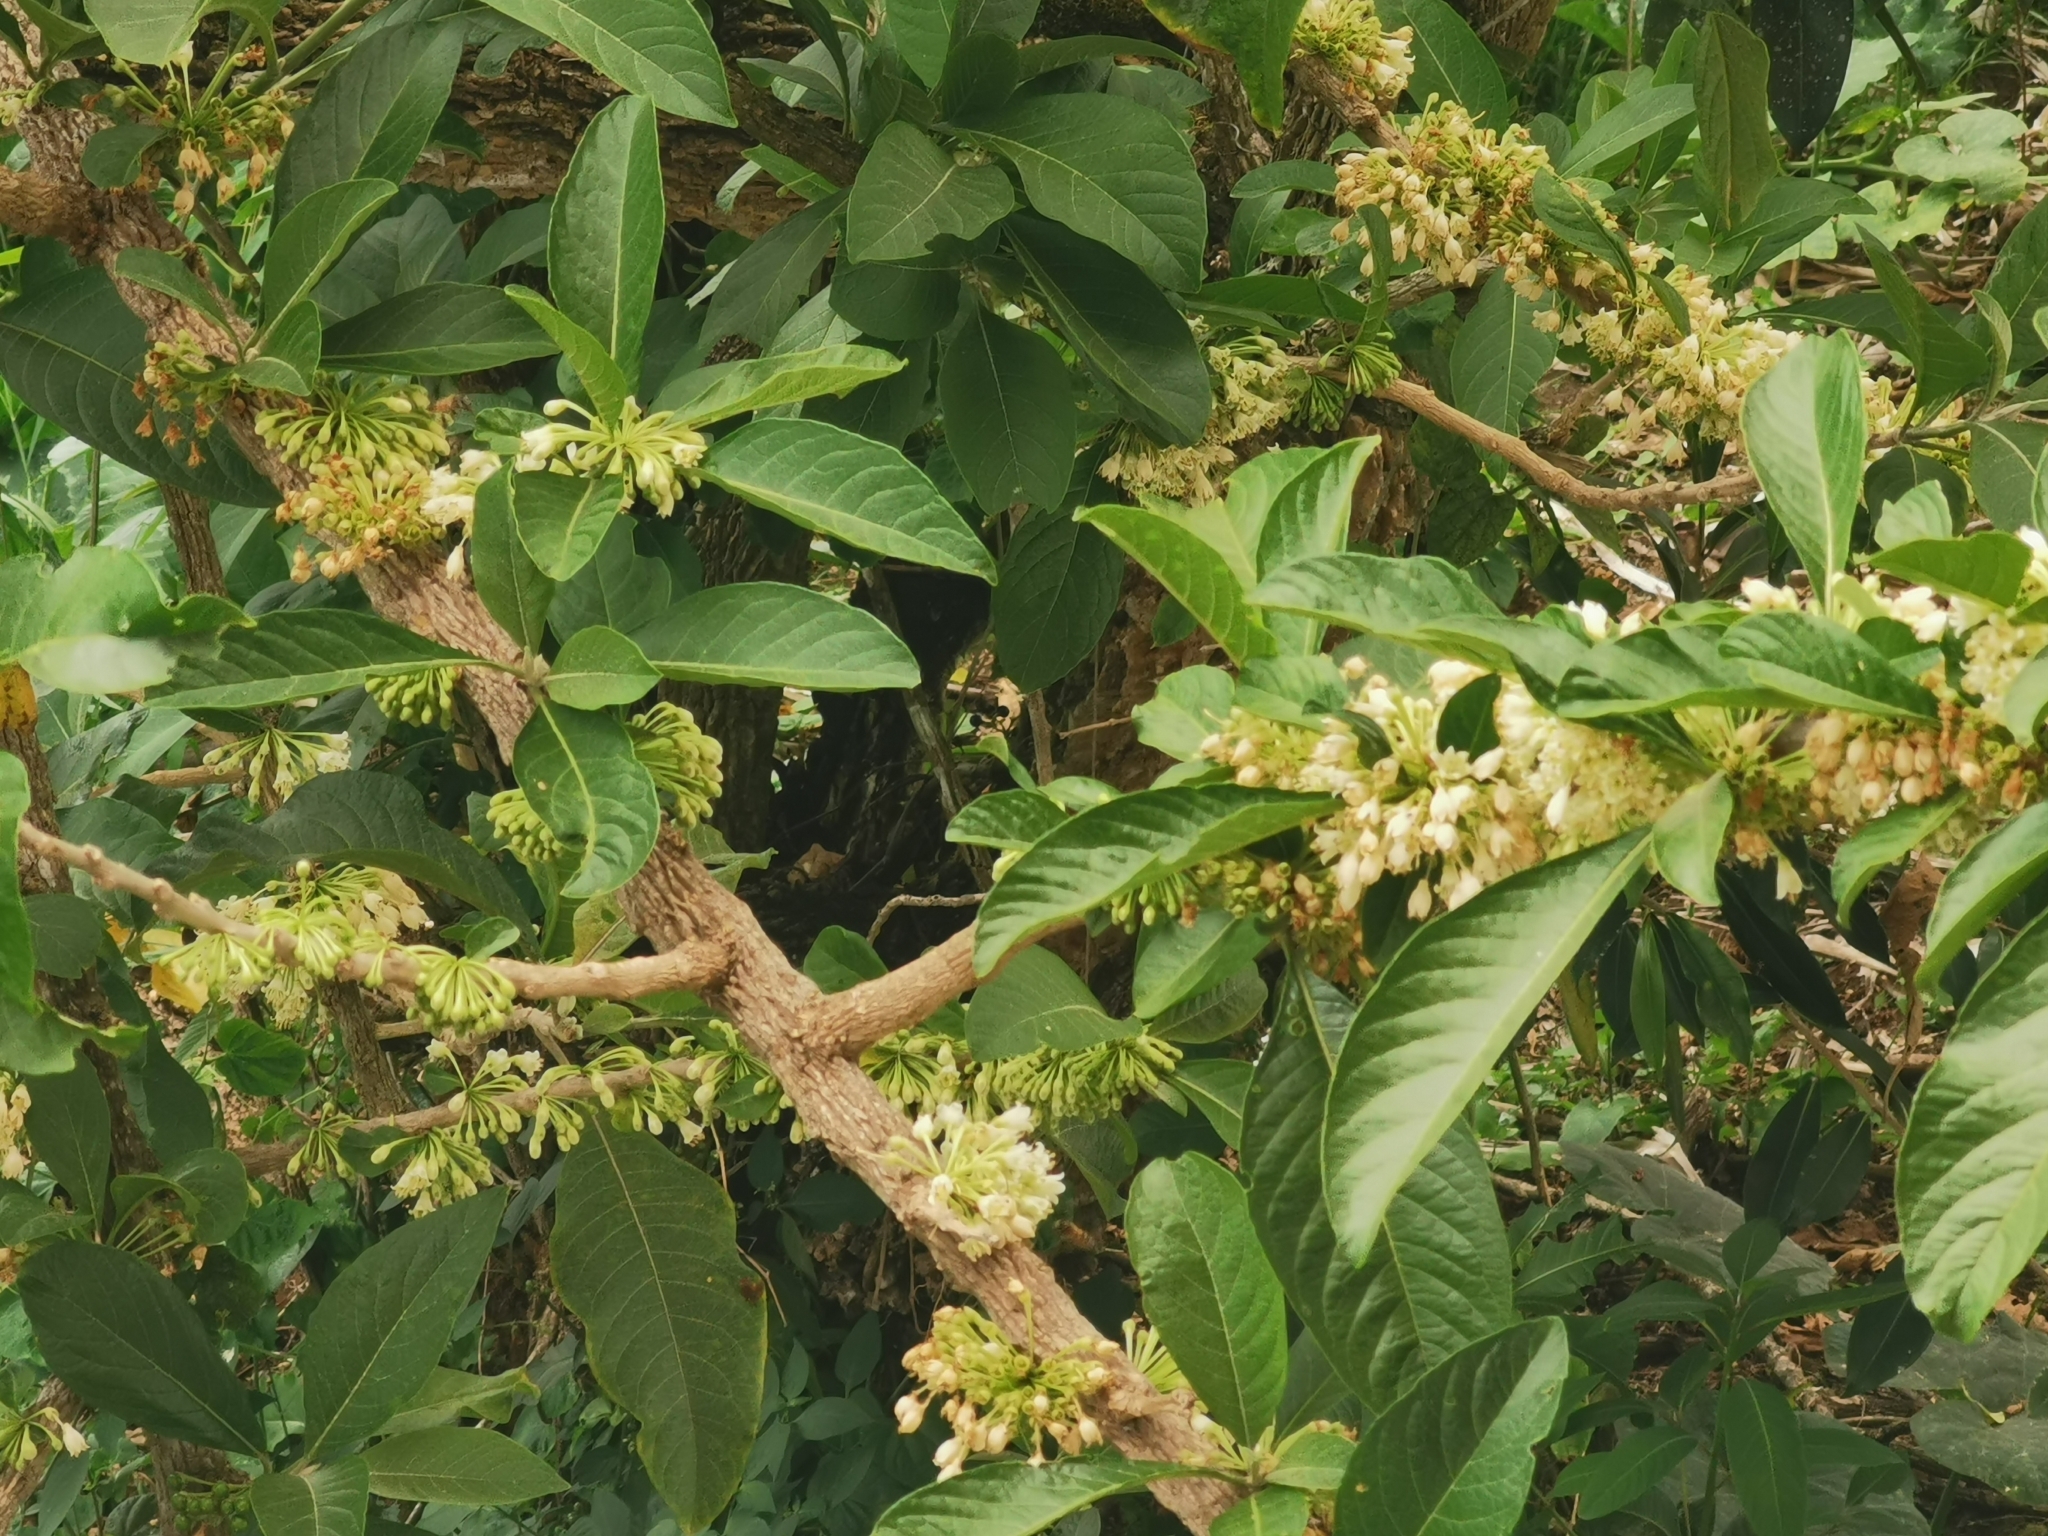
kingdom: Plantae
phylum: Tracheophyta
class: Magnoliopsida
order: Solanales
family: Solanaceae
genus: Iochroma
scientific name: Iochroma arborescens
